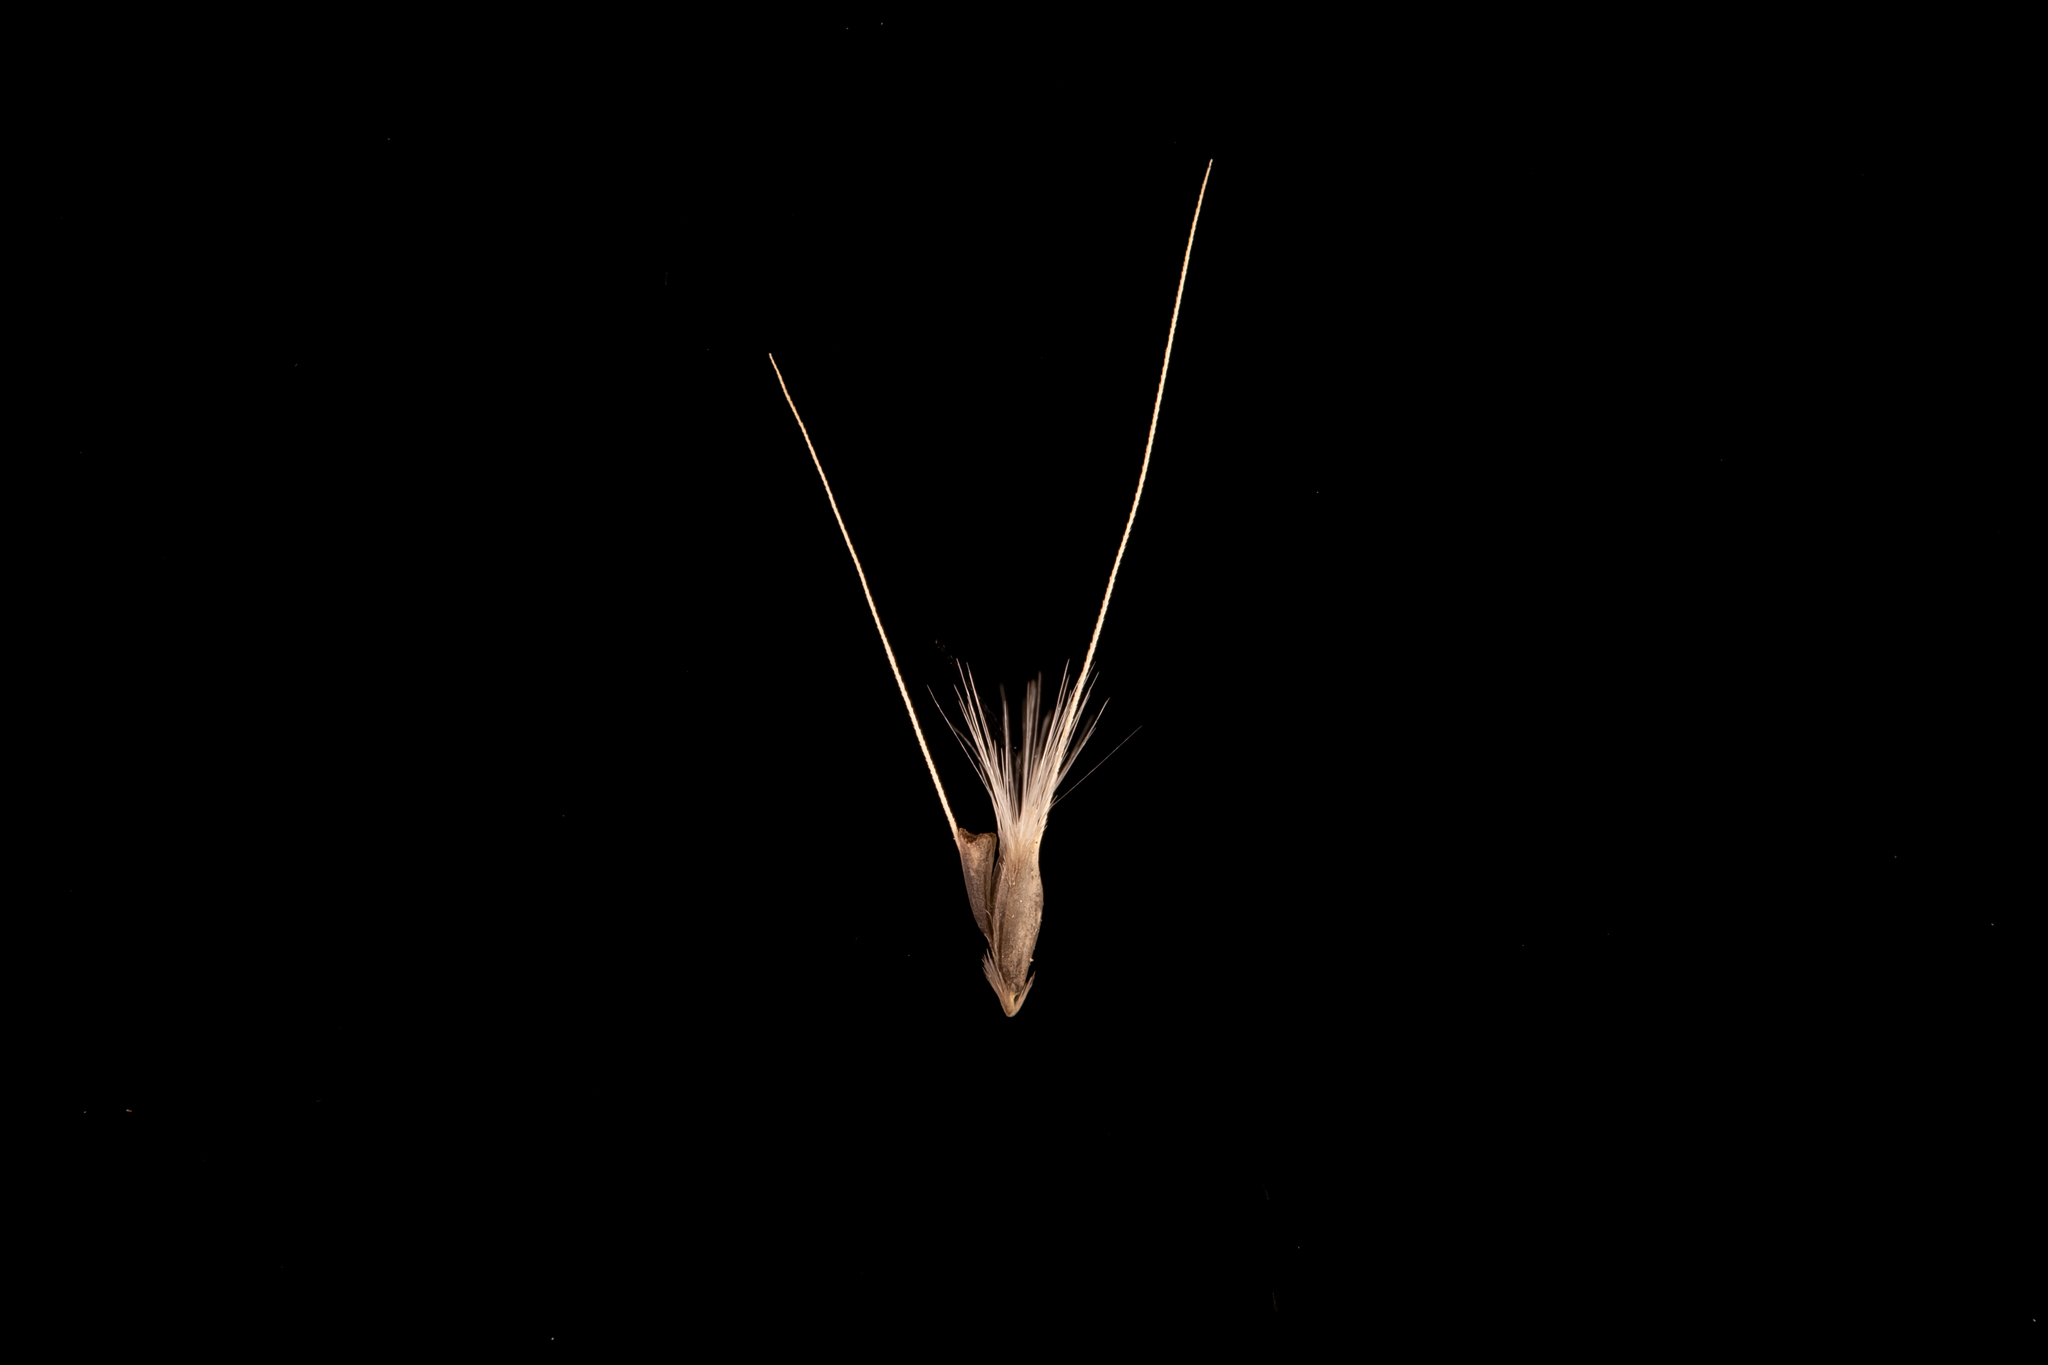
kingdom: Plantae
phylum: Tracheophyta
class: Liliopsida
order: Poales
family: Poaceae
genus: Chloris
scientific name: Chloris virgata
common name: Feathery rhodes-grass
